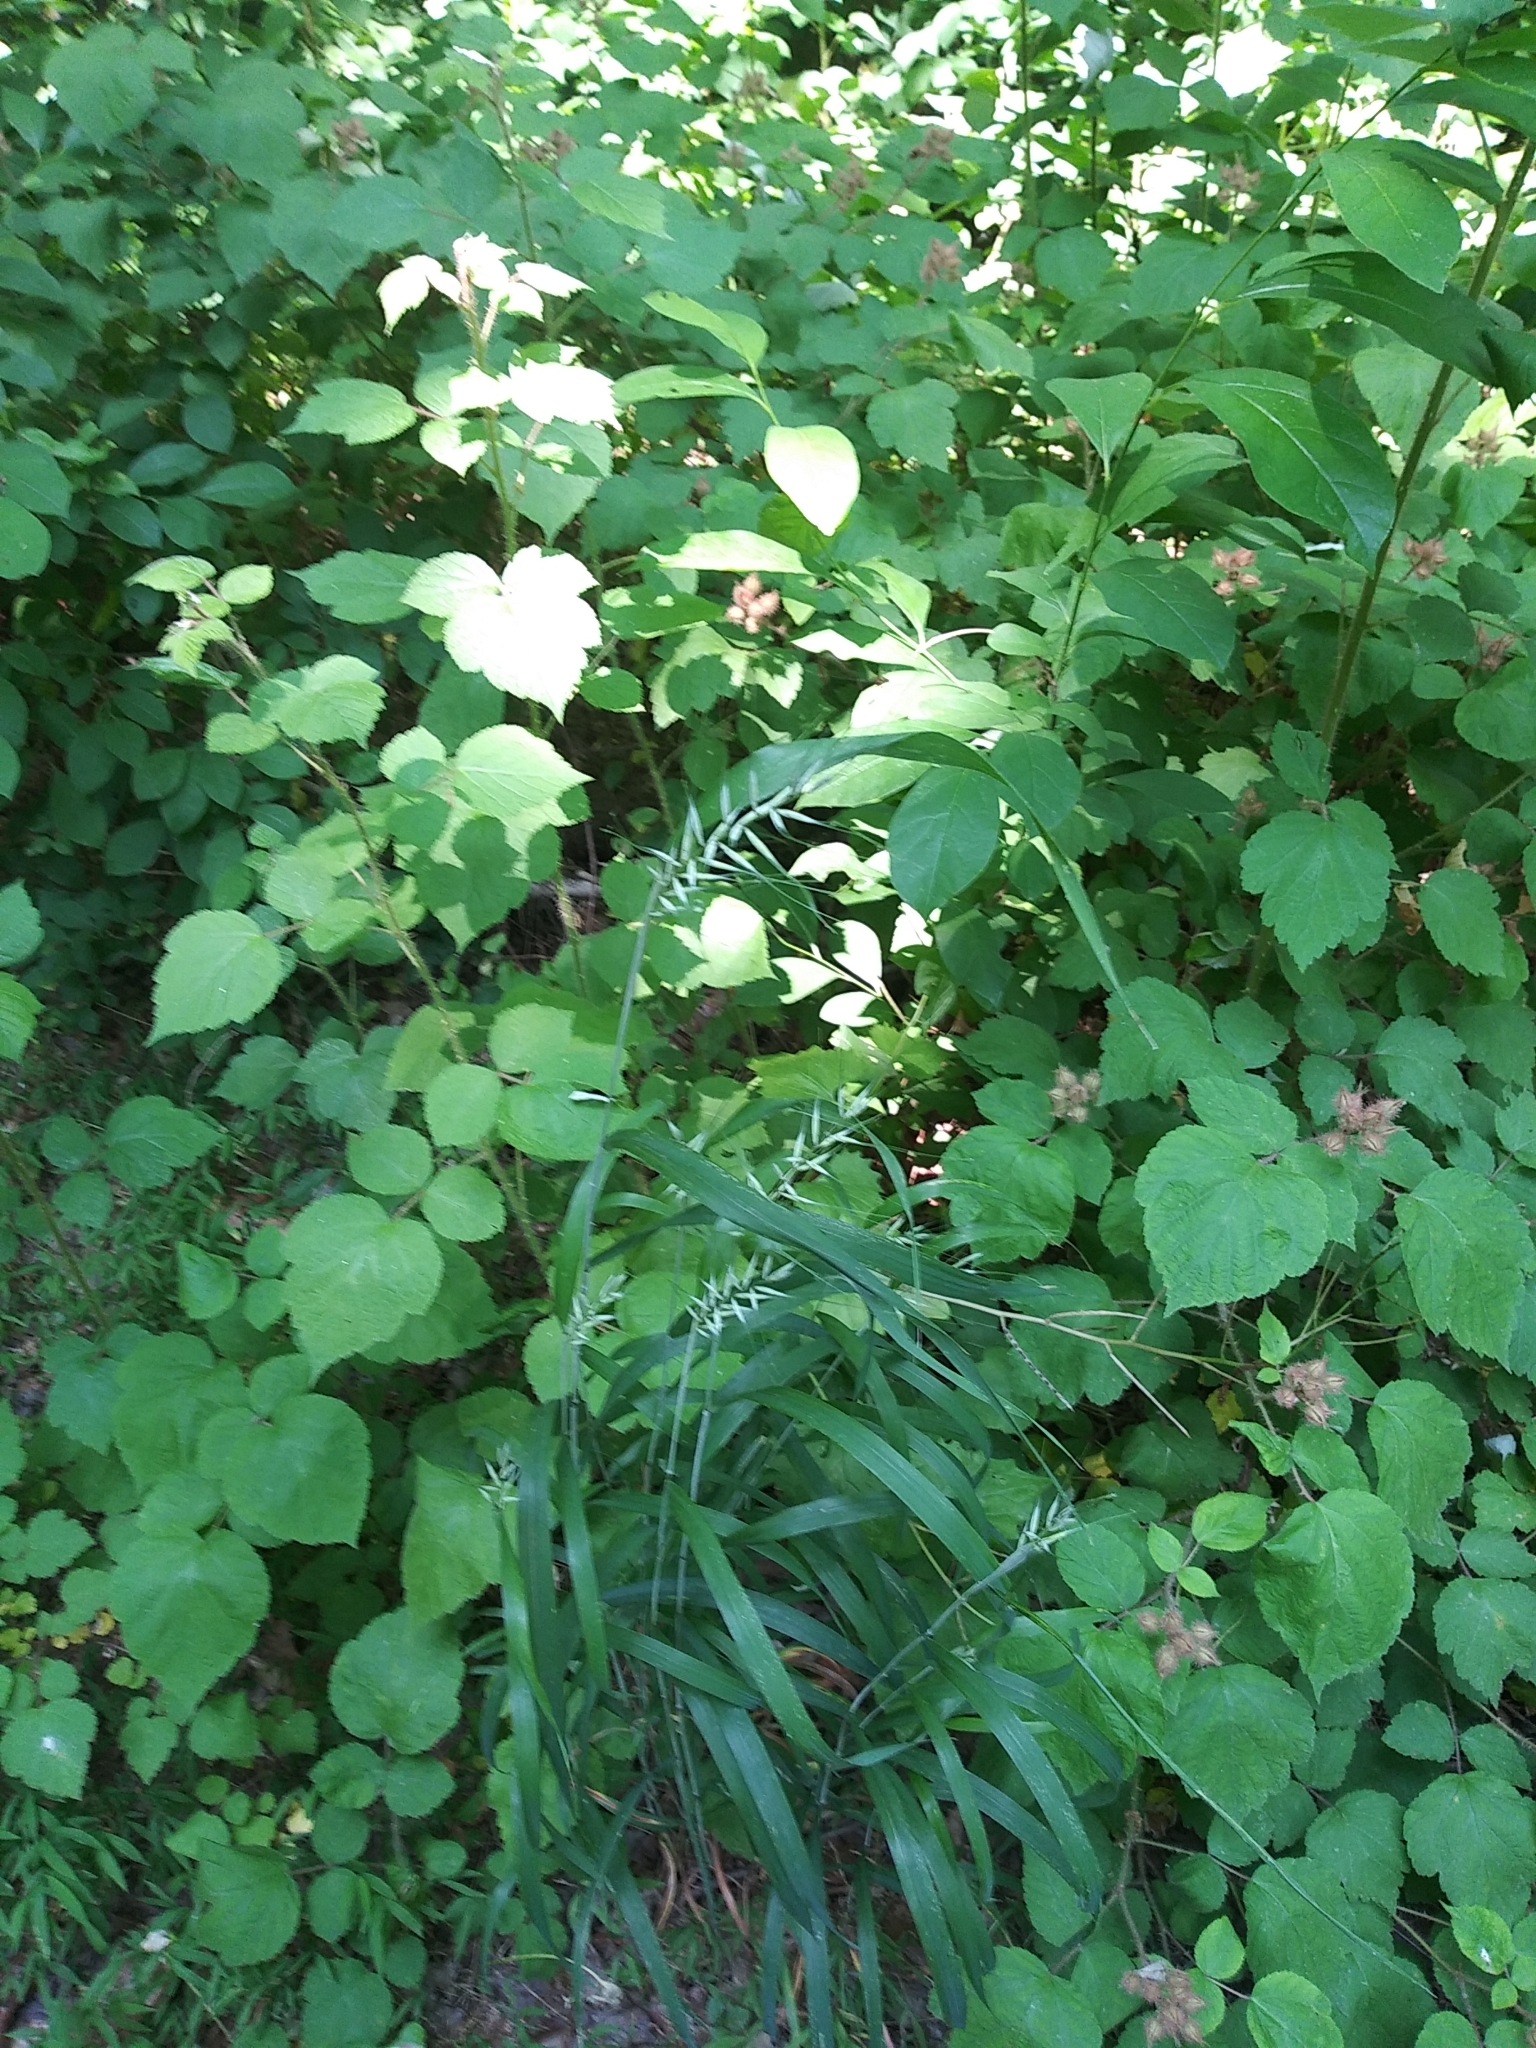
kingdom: Plantae
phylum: Tracheophyta
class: Liliopsida
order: Poales
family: Poaceae
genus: Elymus
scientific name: Elymus hystrix
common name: Bottlebrush grass
